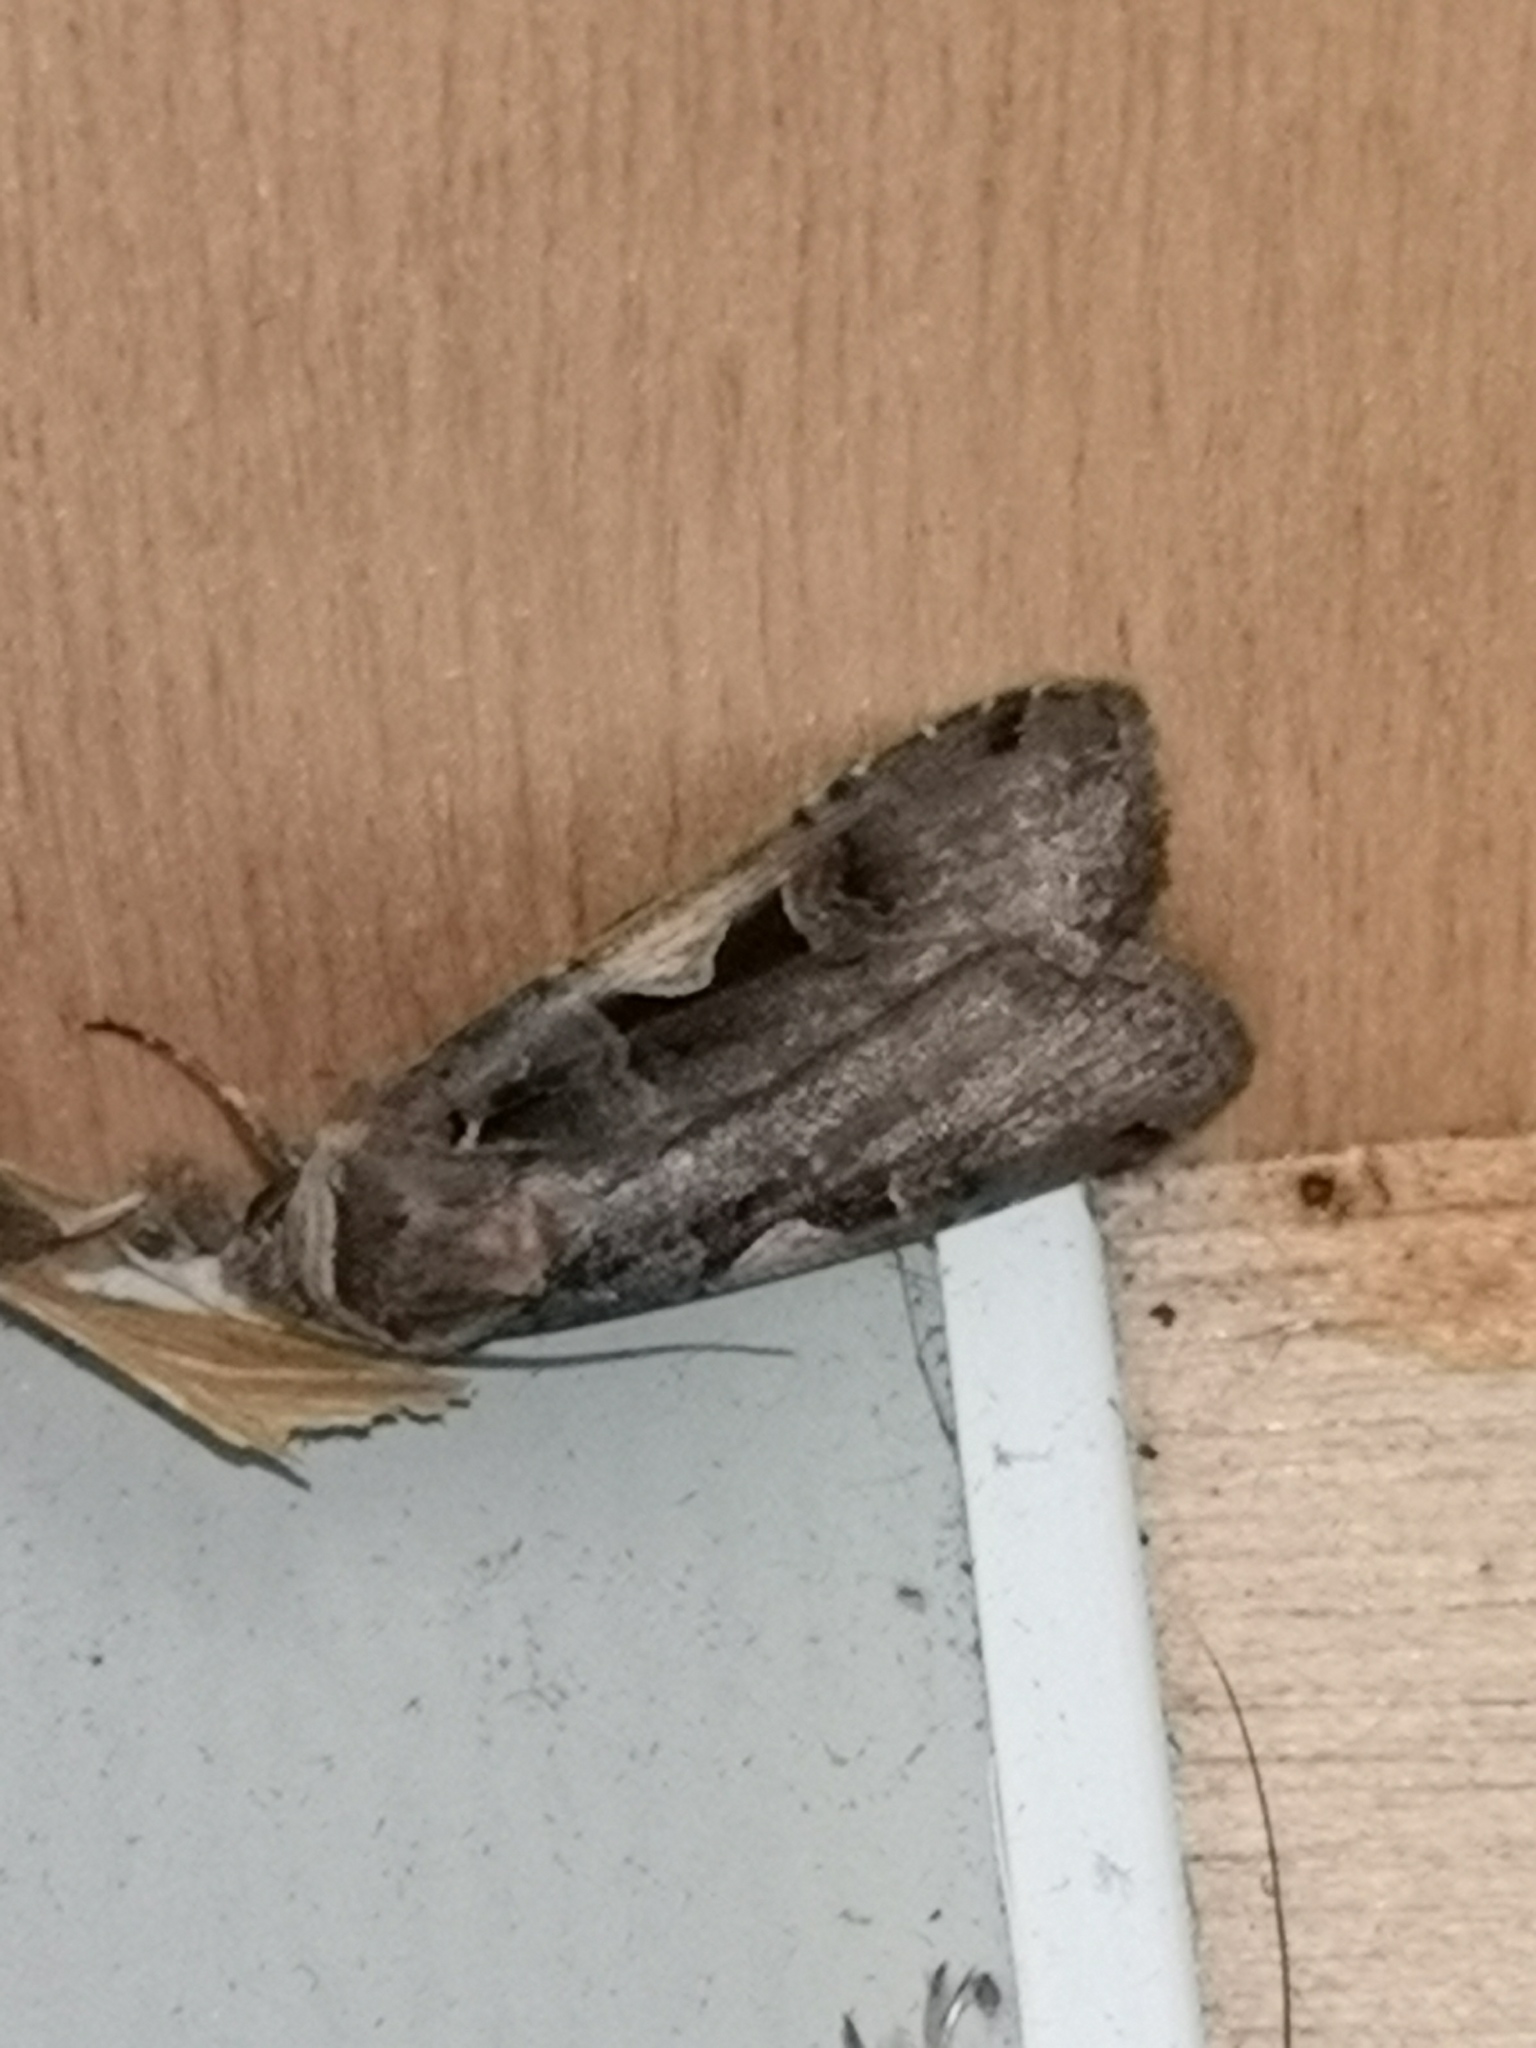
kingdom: Animalia
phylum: Arthropoda
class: Insecta
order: Lepidoptera
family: Noctuidae
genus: Xestia
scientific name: Xestia c-nigrum
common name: Setaceous hebrew character
